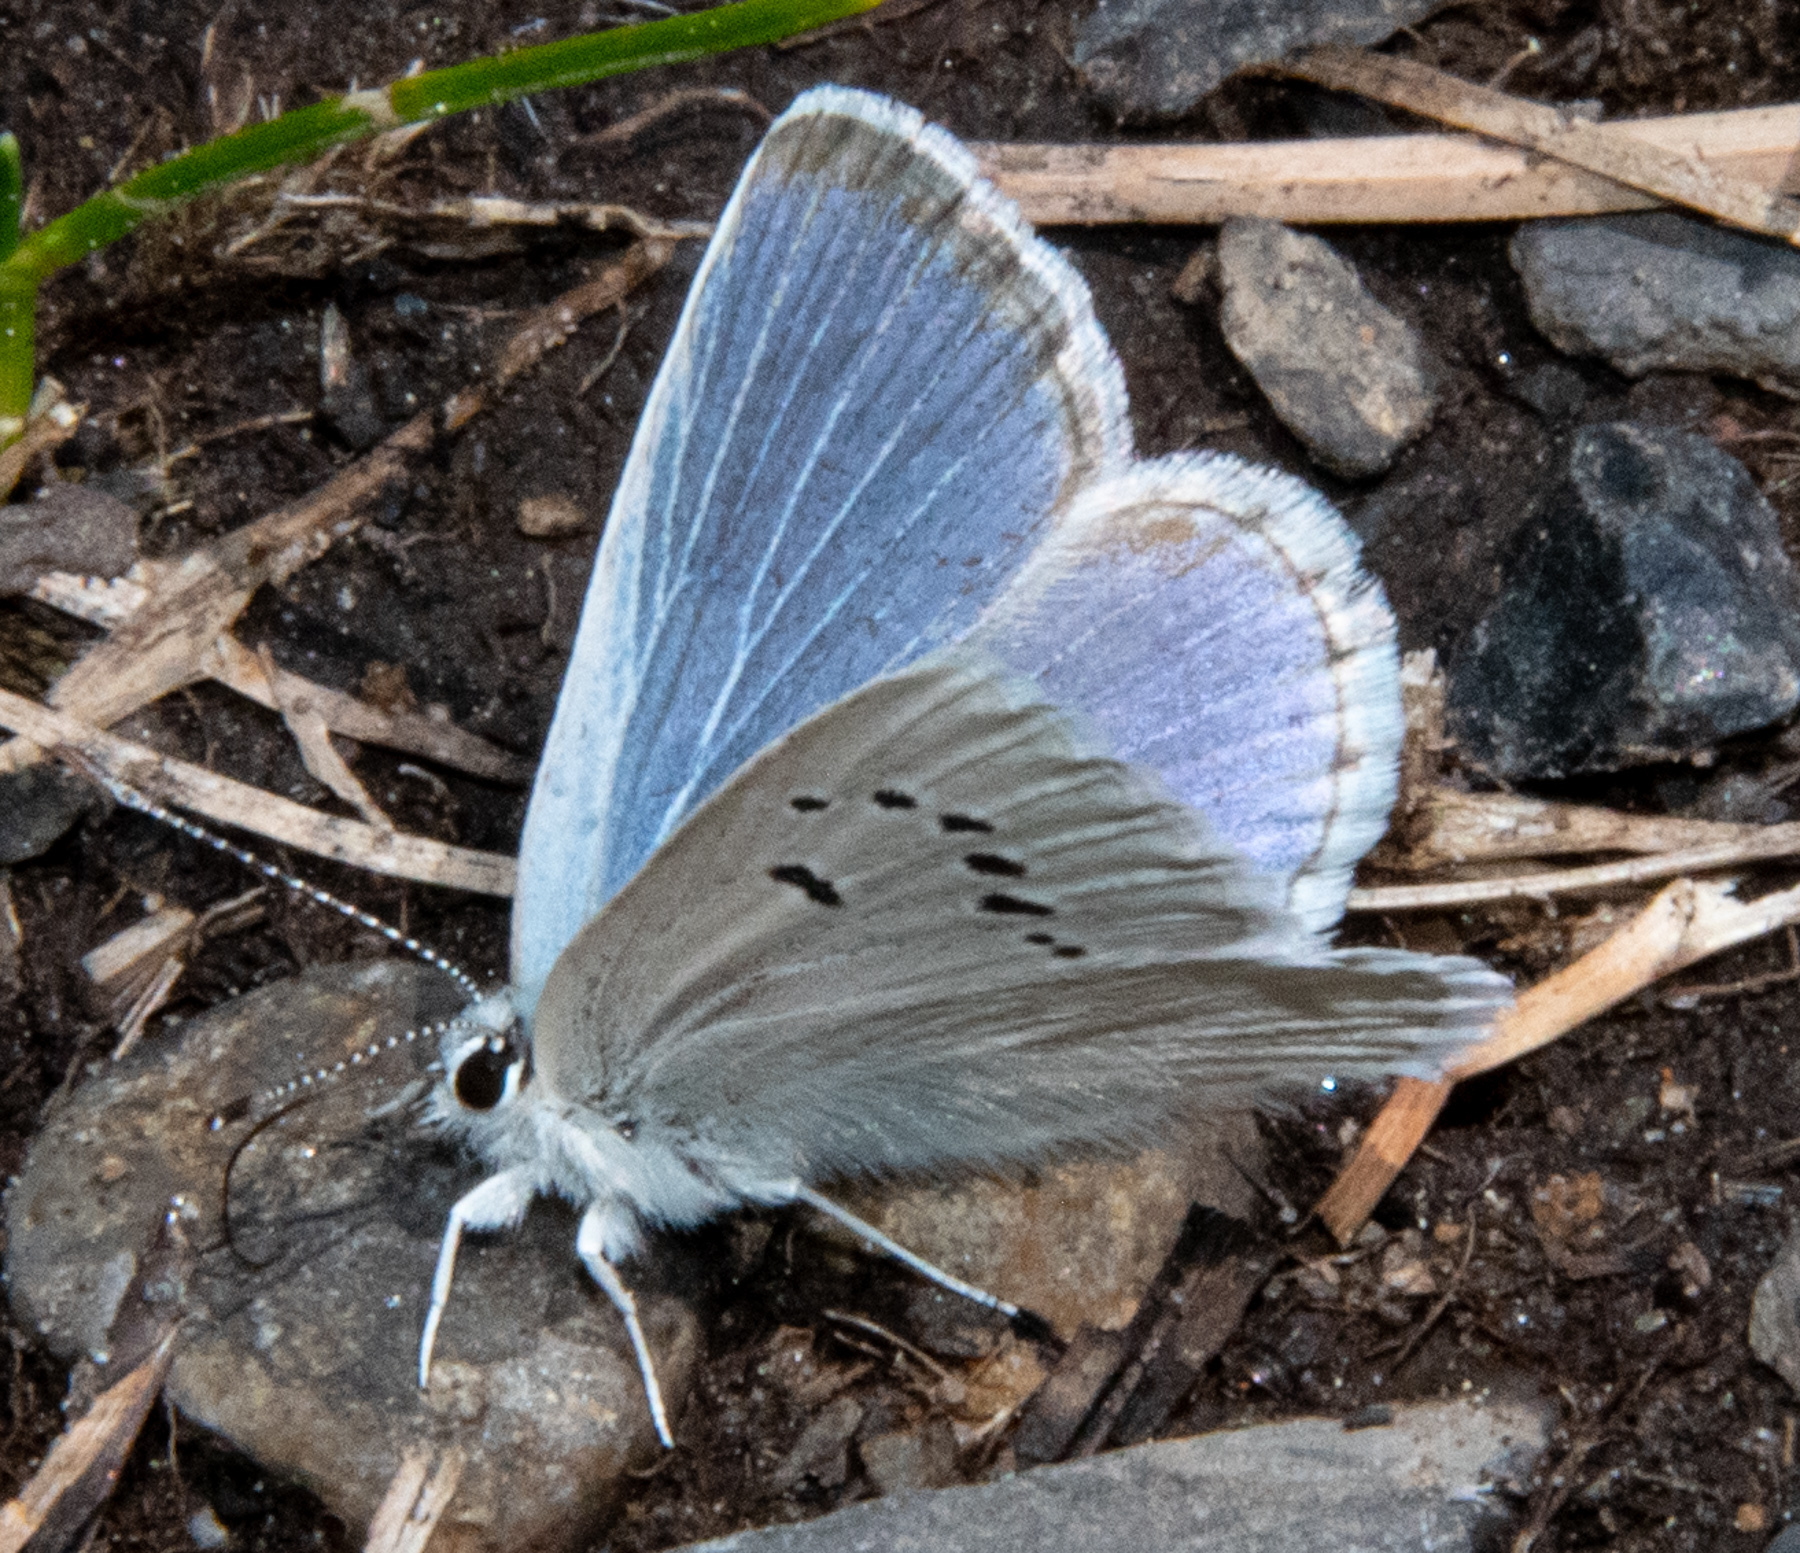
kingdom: Animalia
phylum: Arthropoda
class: Insecta
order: Lepidoptera
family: Lycaenidae
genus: Icaricia
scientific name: Icaricia icarioides
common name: Boisduval's blue
